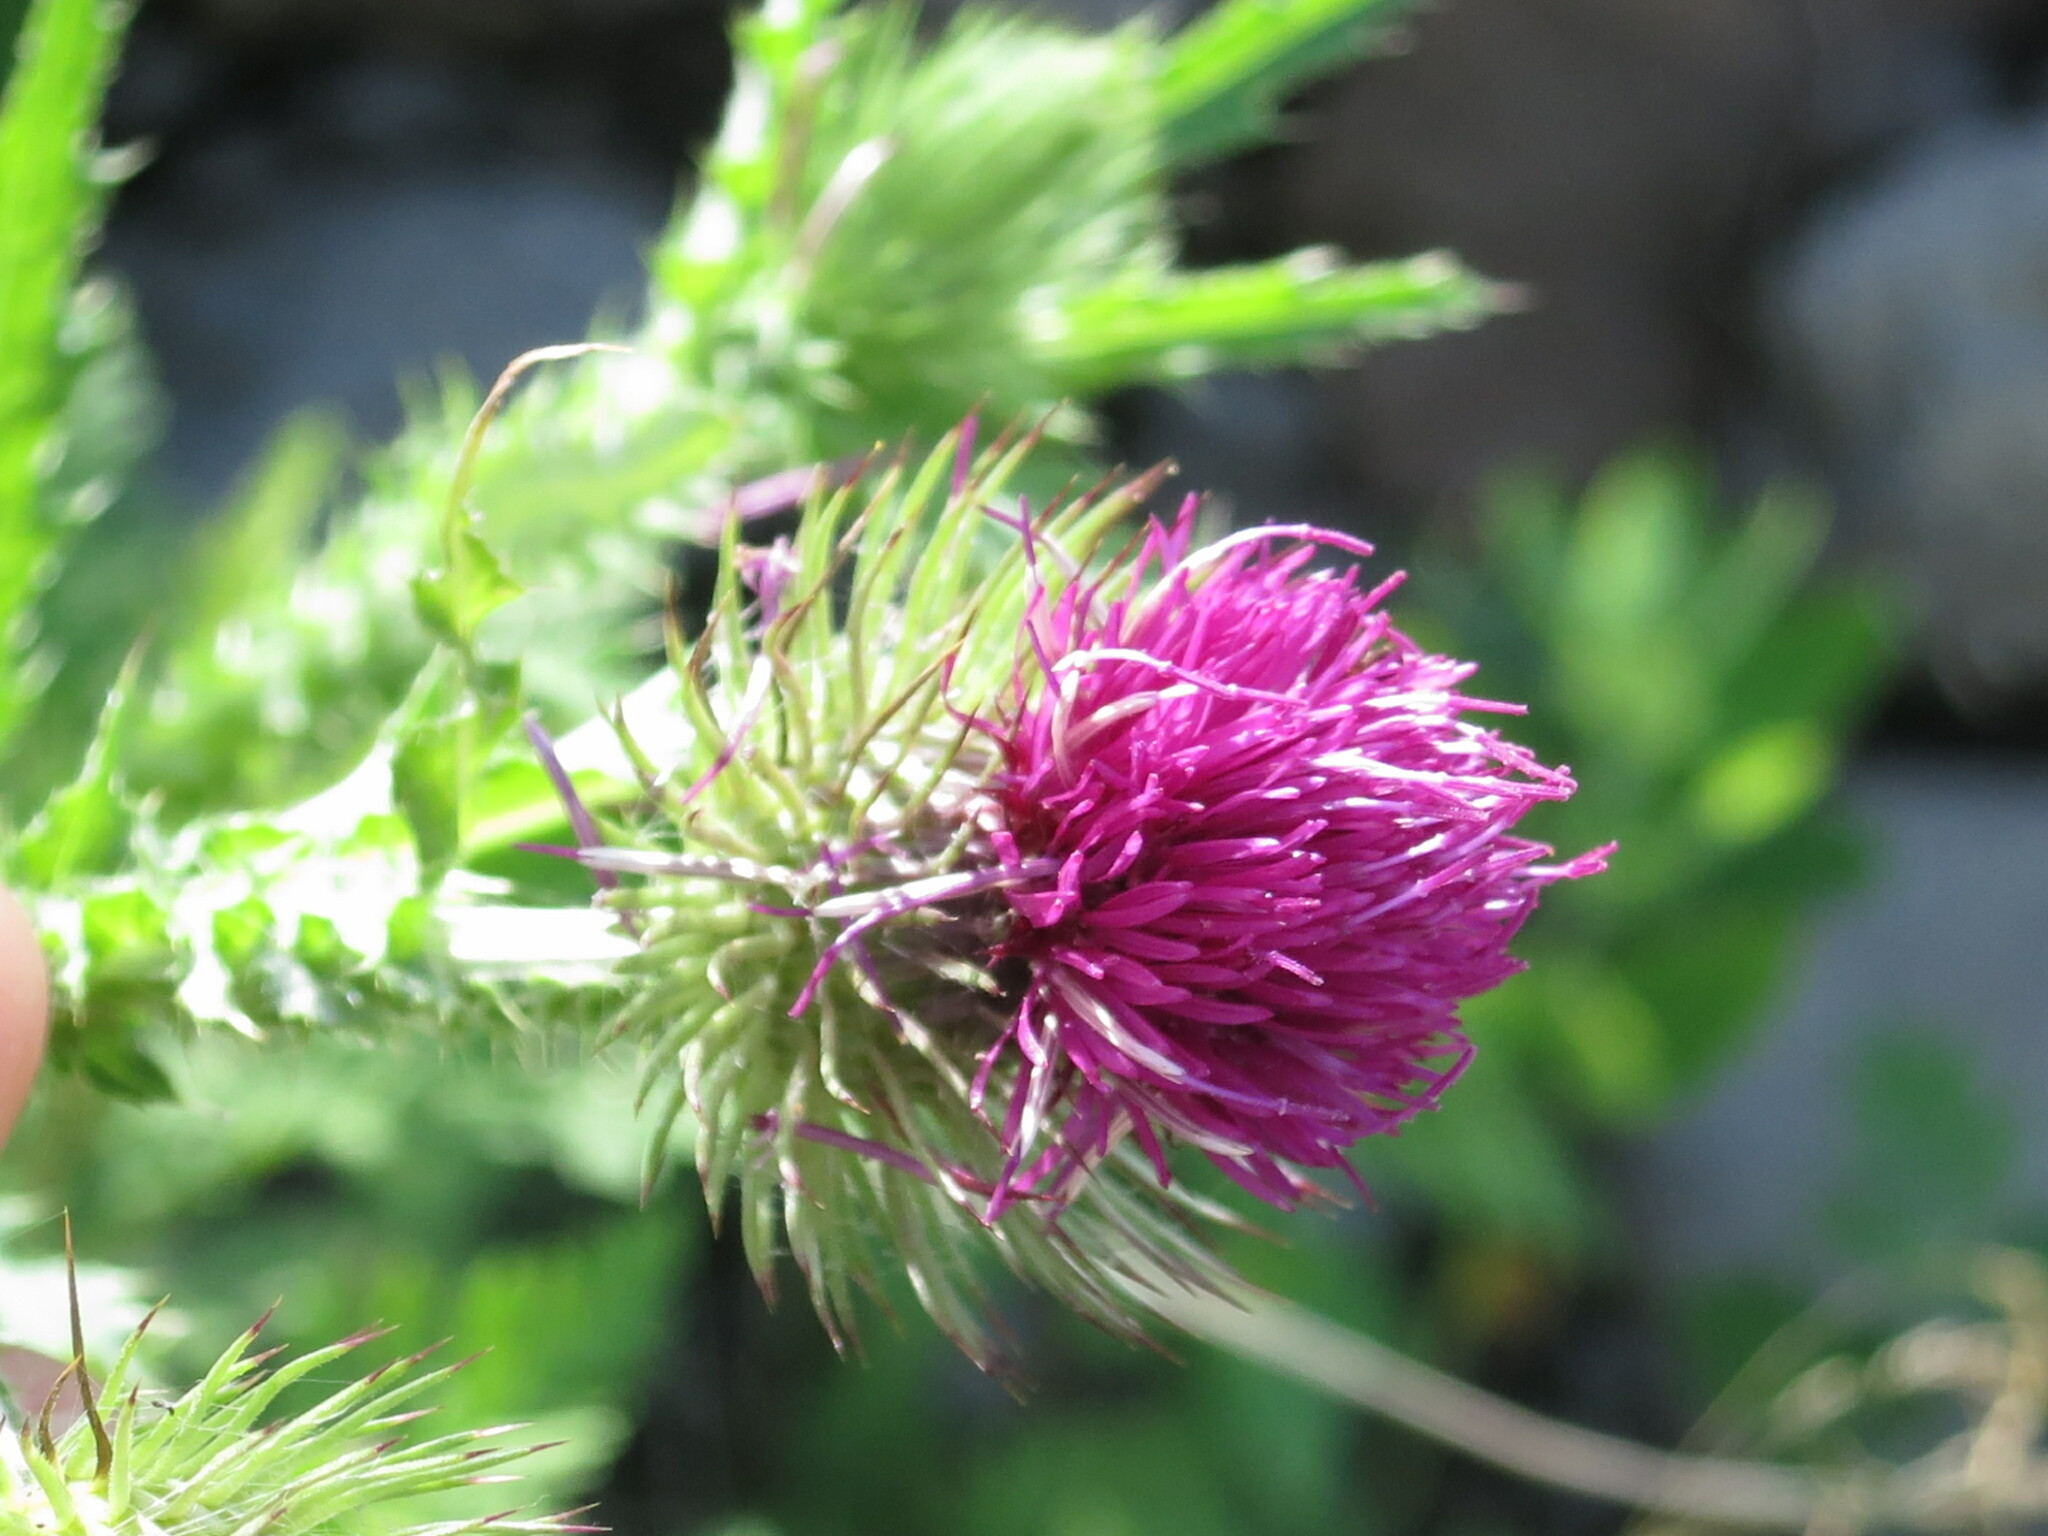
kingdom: Plantae
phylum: Tracheophyta
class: Magnoliopsida
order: Asterales
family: Asteraceae
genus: Carduus
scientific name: Carduus crispus
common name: Welted thistle
